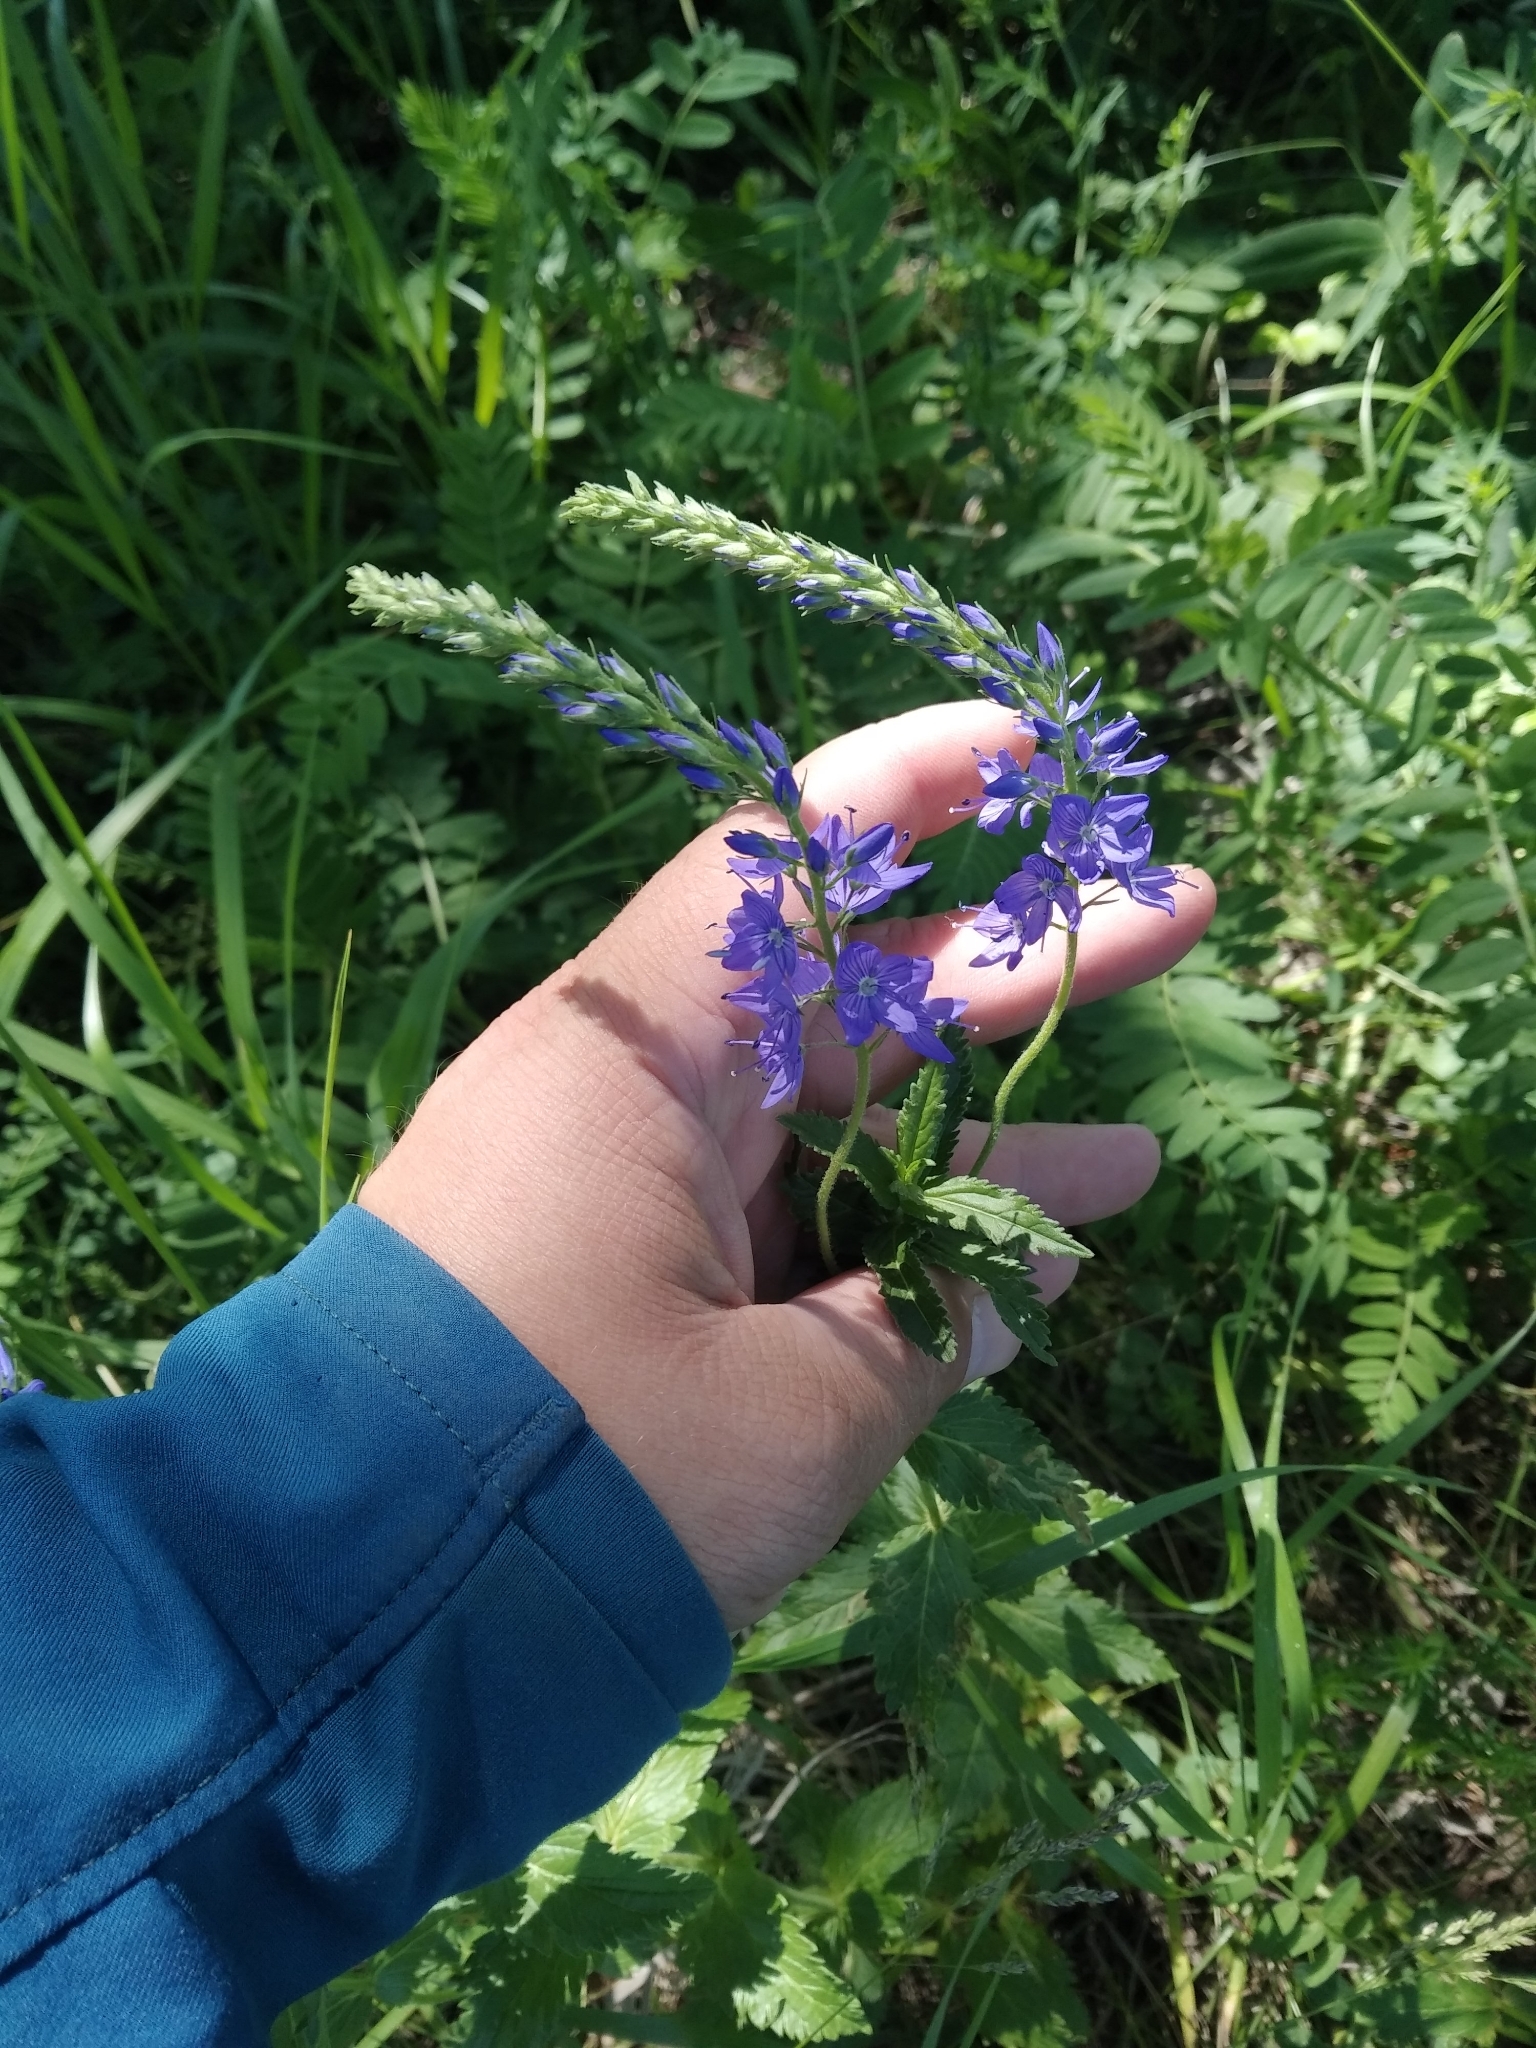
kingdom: Plantae
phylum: Tracheophyta
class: Magnoliopsida
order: Lamiales
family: Plantaginaceae
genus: Veronica
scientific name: Veronica teucrium
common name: Large speedwell
